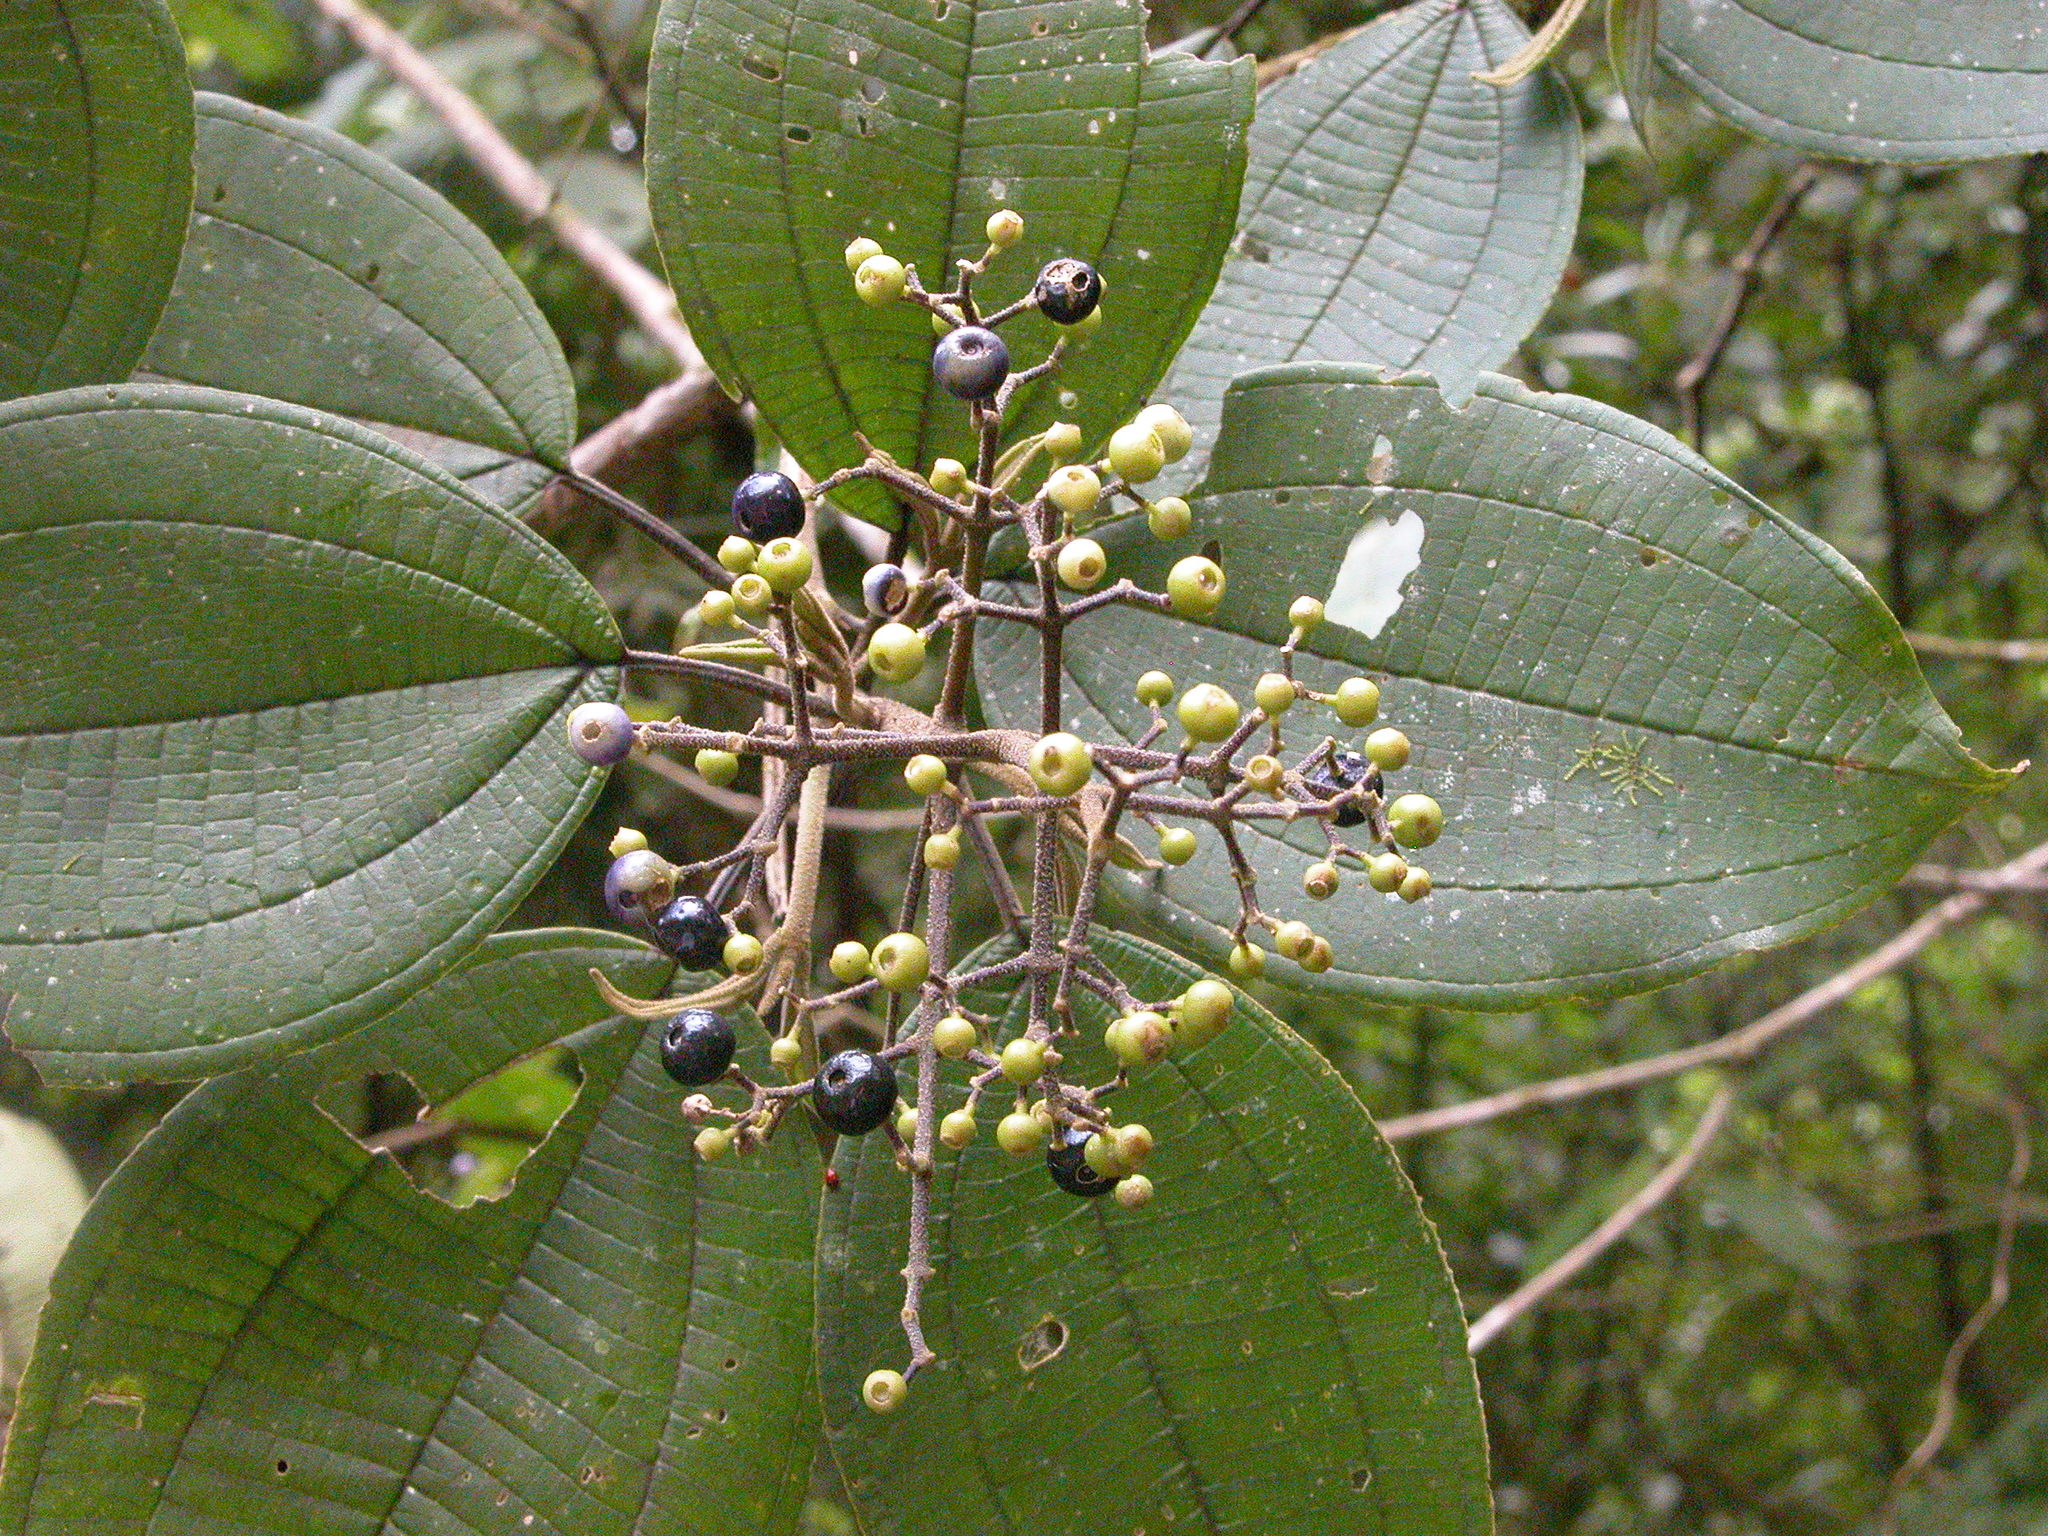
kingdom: Plantae
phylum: Tracheophyta
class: Magnoliopsida
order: Myrtales
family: Melastomataceae
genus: Miconia
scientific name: Miconia conomicrantha
